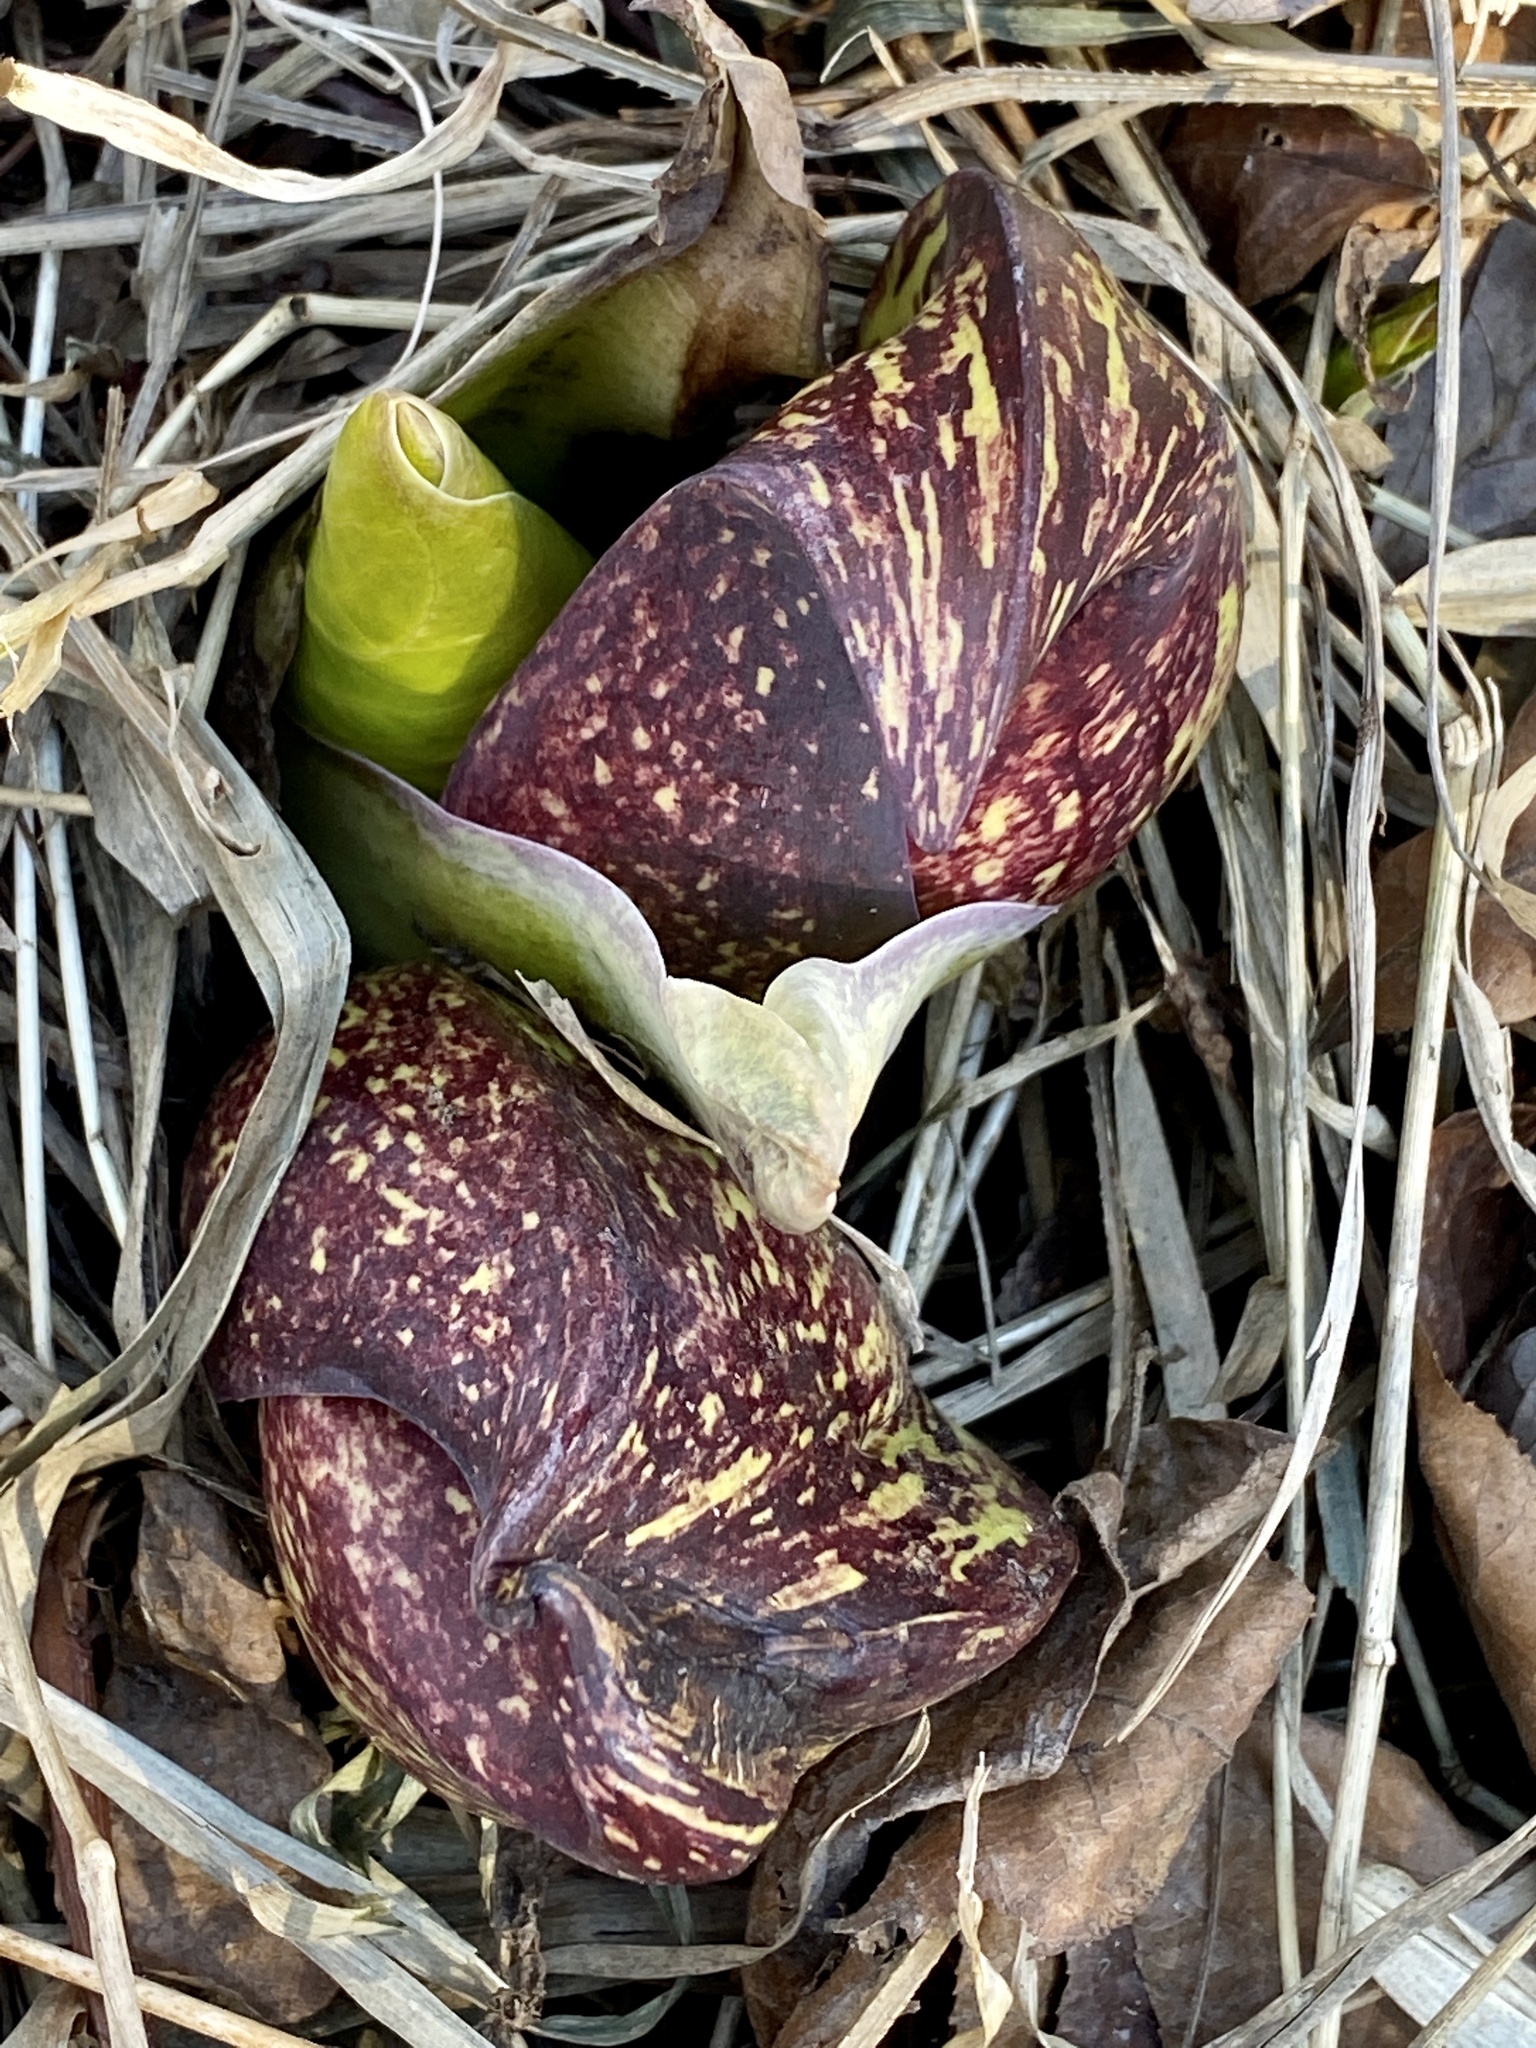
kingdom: Plantae
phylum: Tracheophyta
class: Liliopsida
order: Alismatales
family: Araceae
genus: Symplocarpus
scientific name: Symplocarpus foetidus
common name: Eastern skunk cabbage
